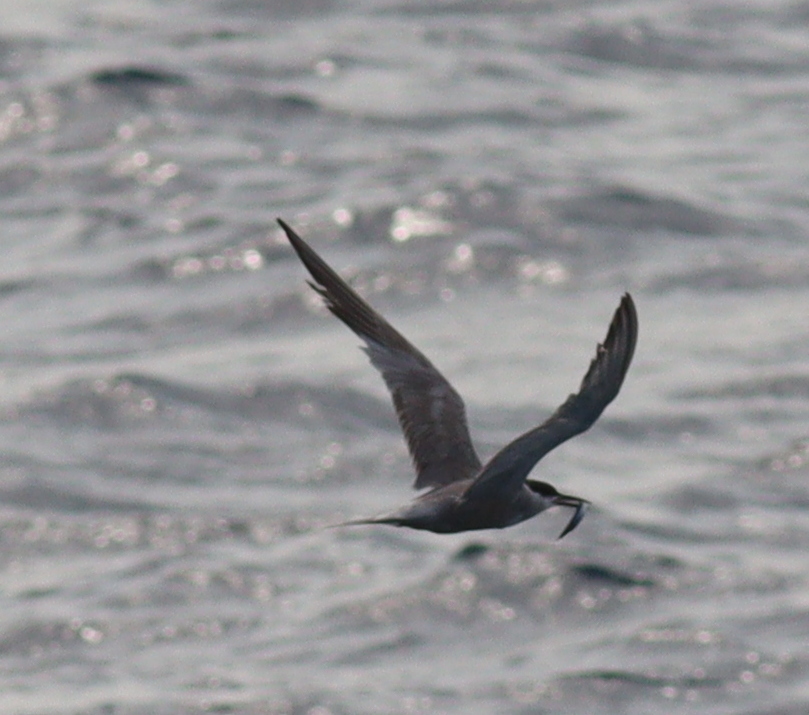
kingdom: Animalia
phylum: Chordata
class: Aves
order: Charadriiformes
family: Laridae
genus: Sterna
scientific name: Sterna repressa
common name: White-cheeked tern
